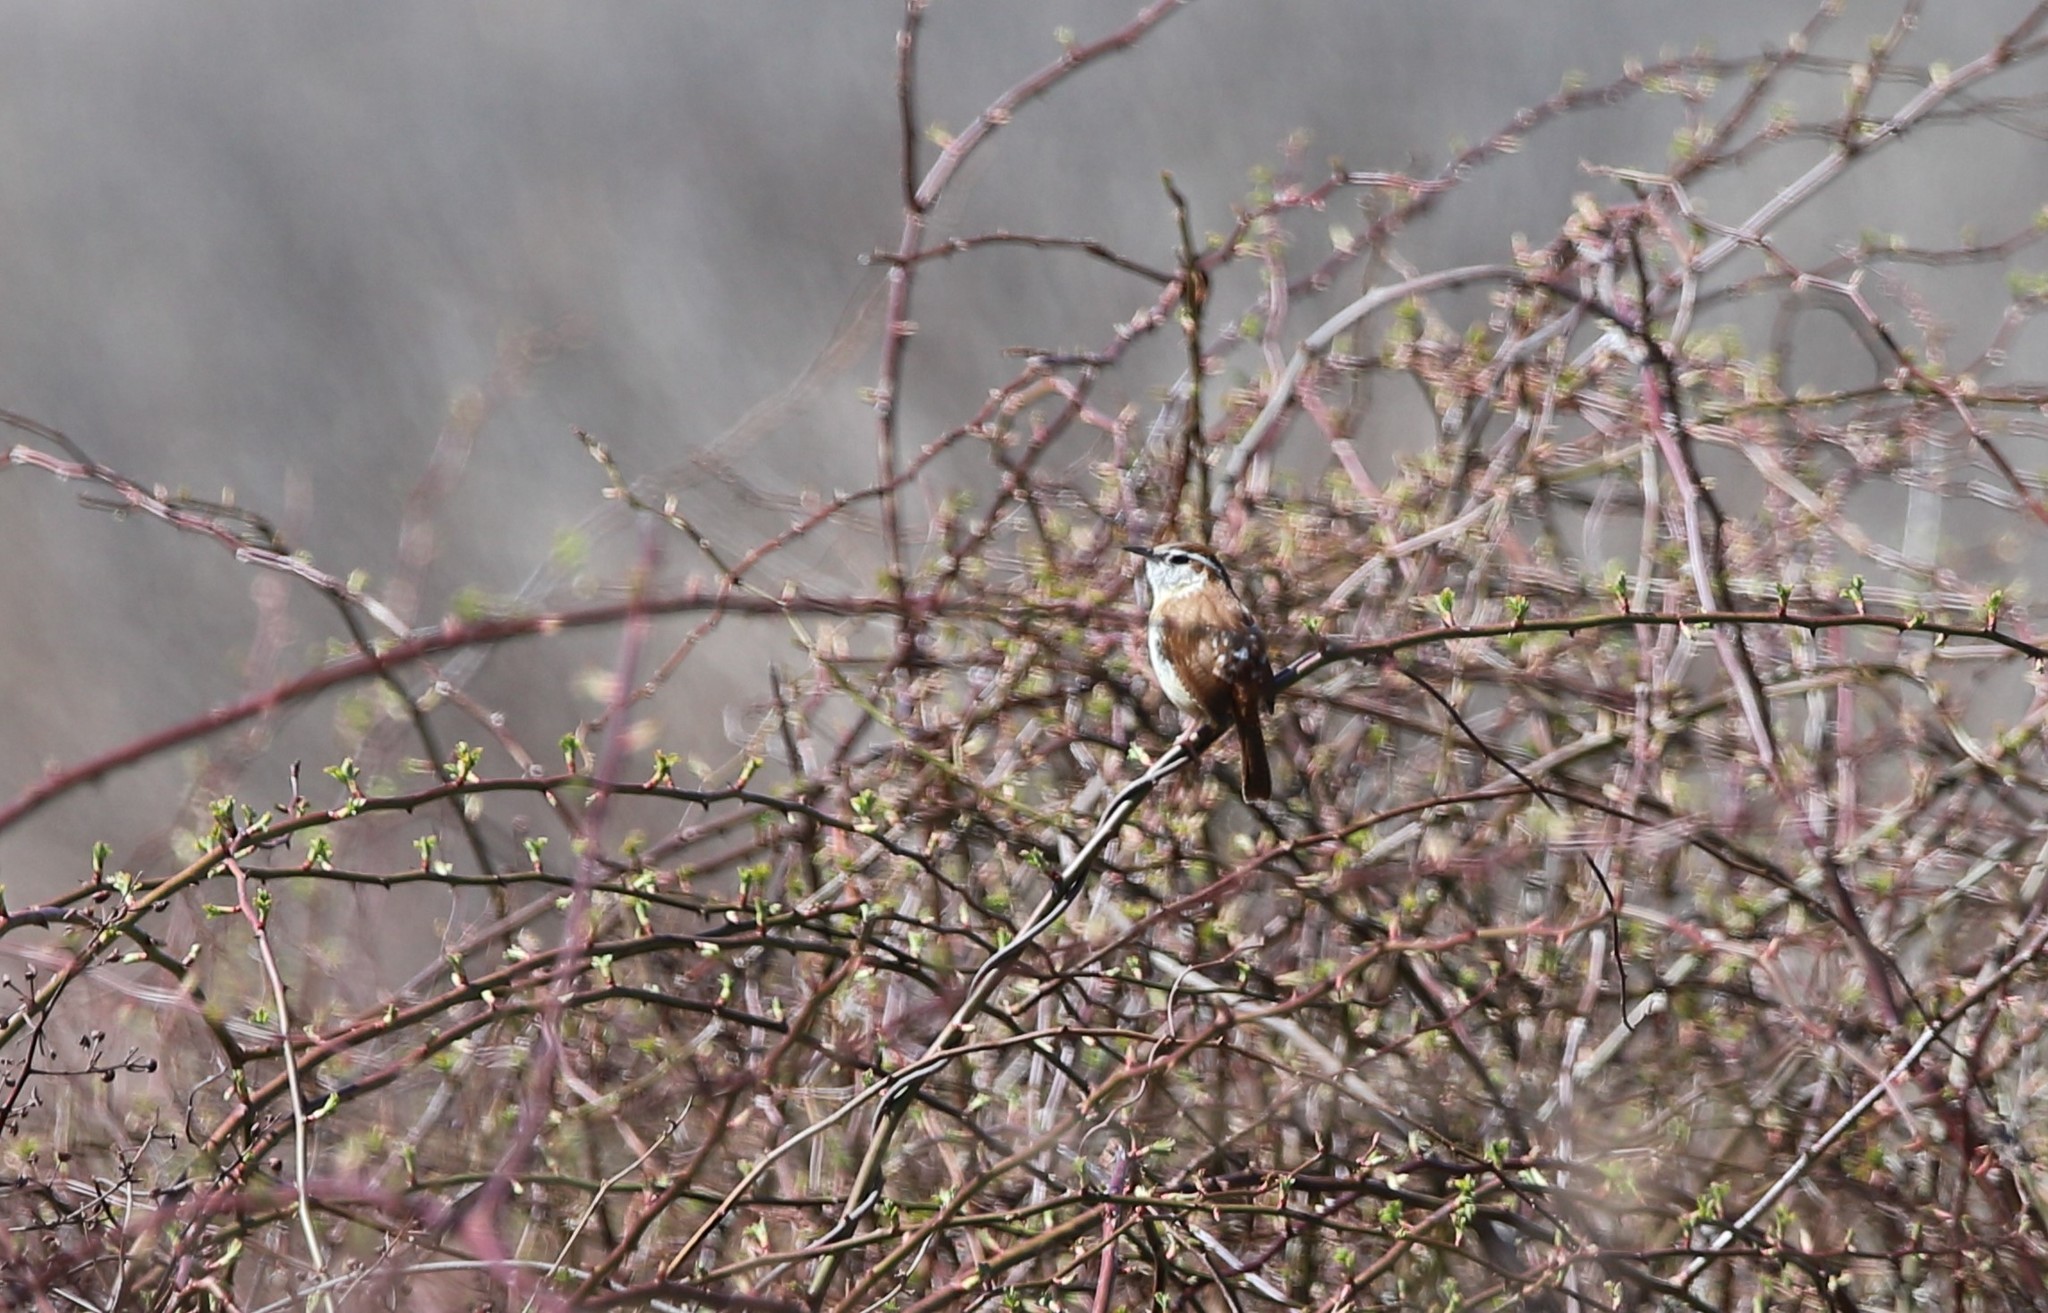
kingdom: Animalia
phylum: Chordata
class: Aves
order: Passeriformes
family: Troglodytidae
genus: Thryothorus
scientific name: Thryothorus ludovicianus
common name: Carolina wren
